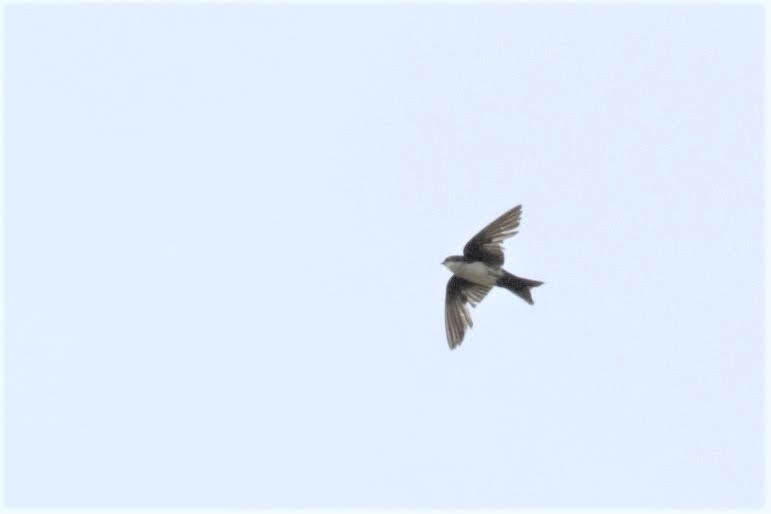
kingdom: Animalia
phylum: Chordata
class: Aves
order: Passeriformes
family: Hirundinidae
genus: Notiochelidon
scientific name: Notiochelidon cyanoleuca
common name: Blue-and-white swallow
